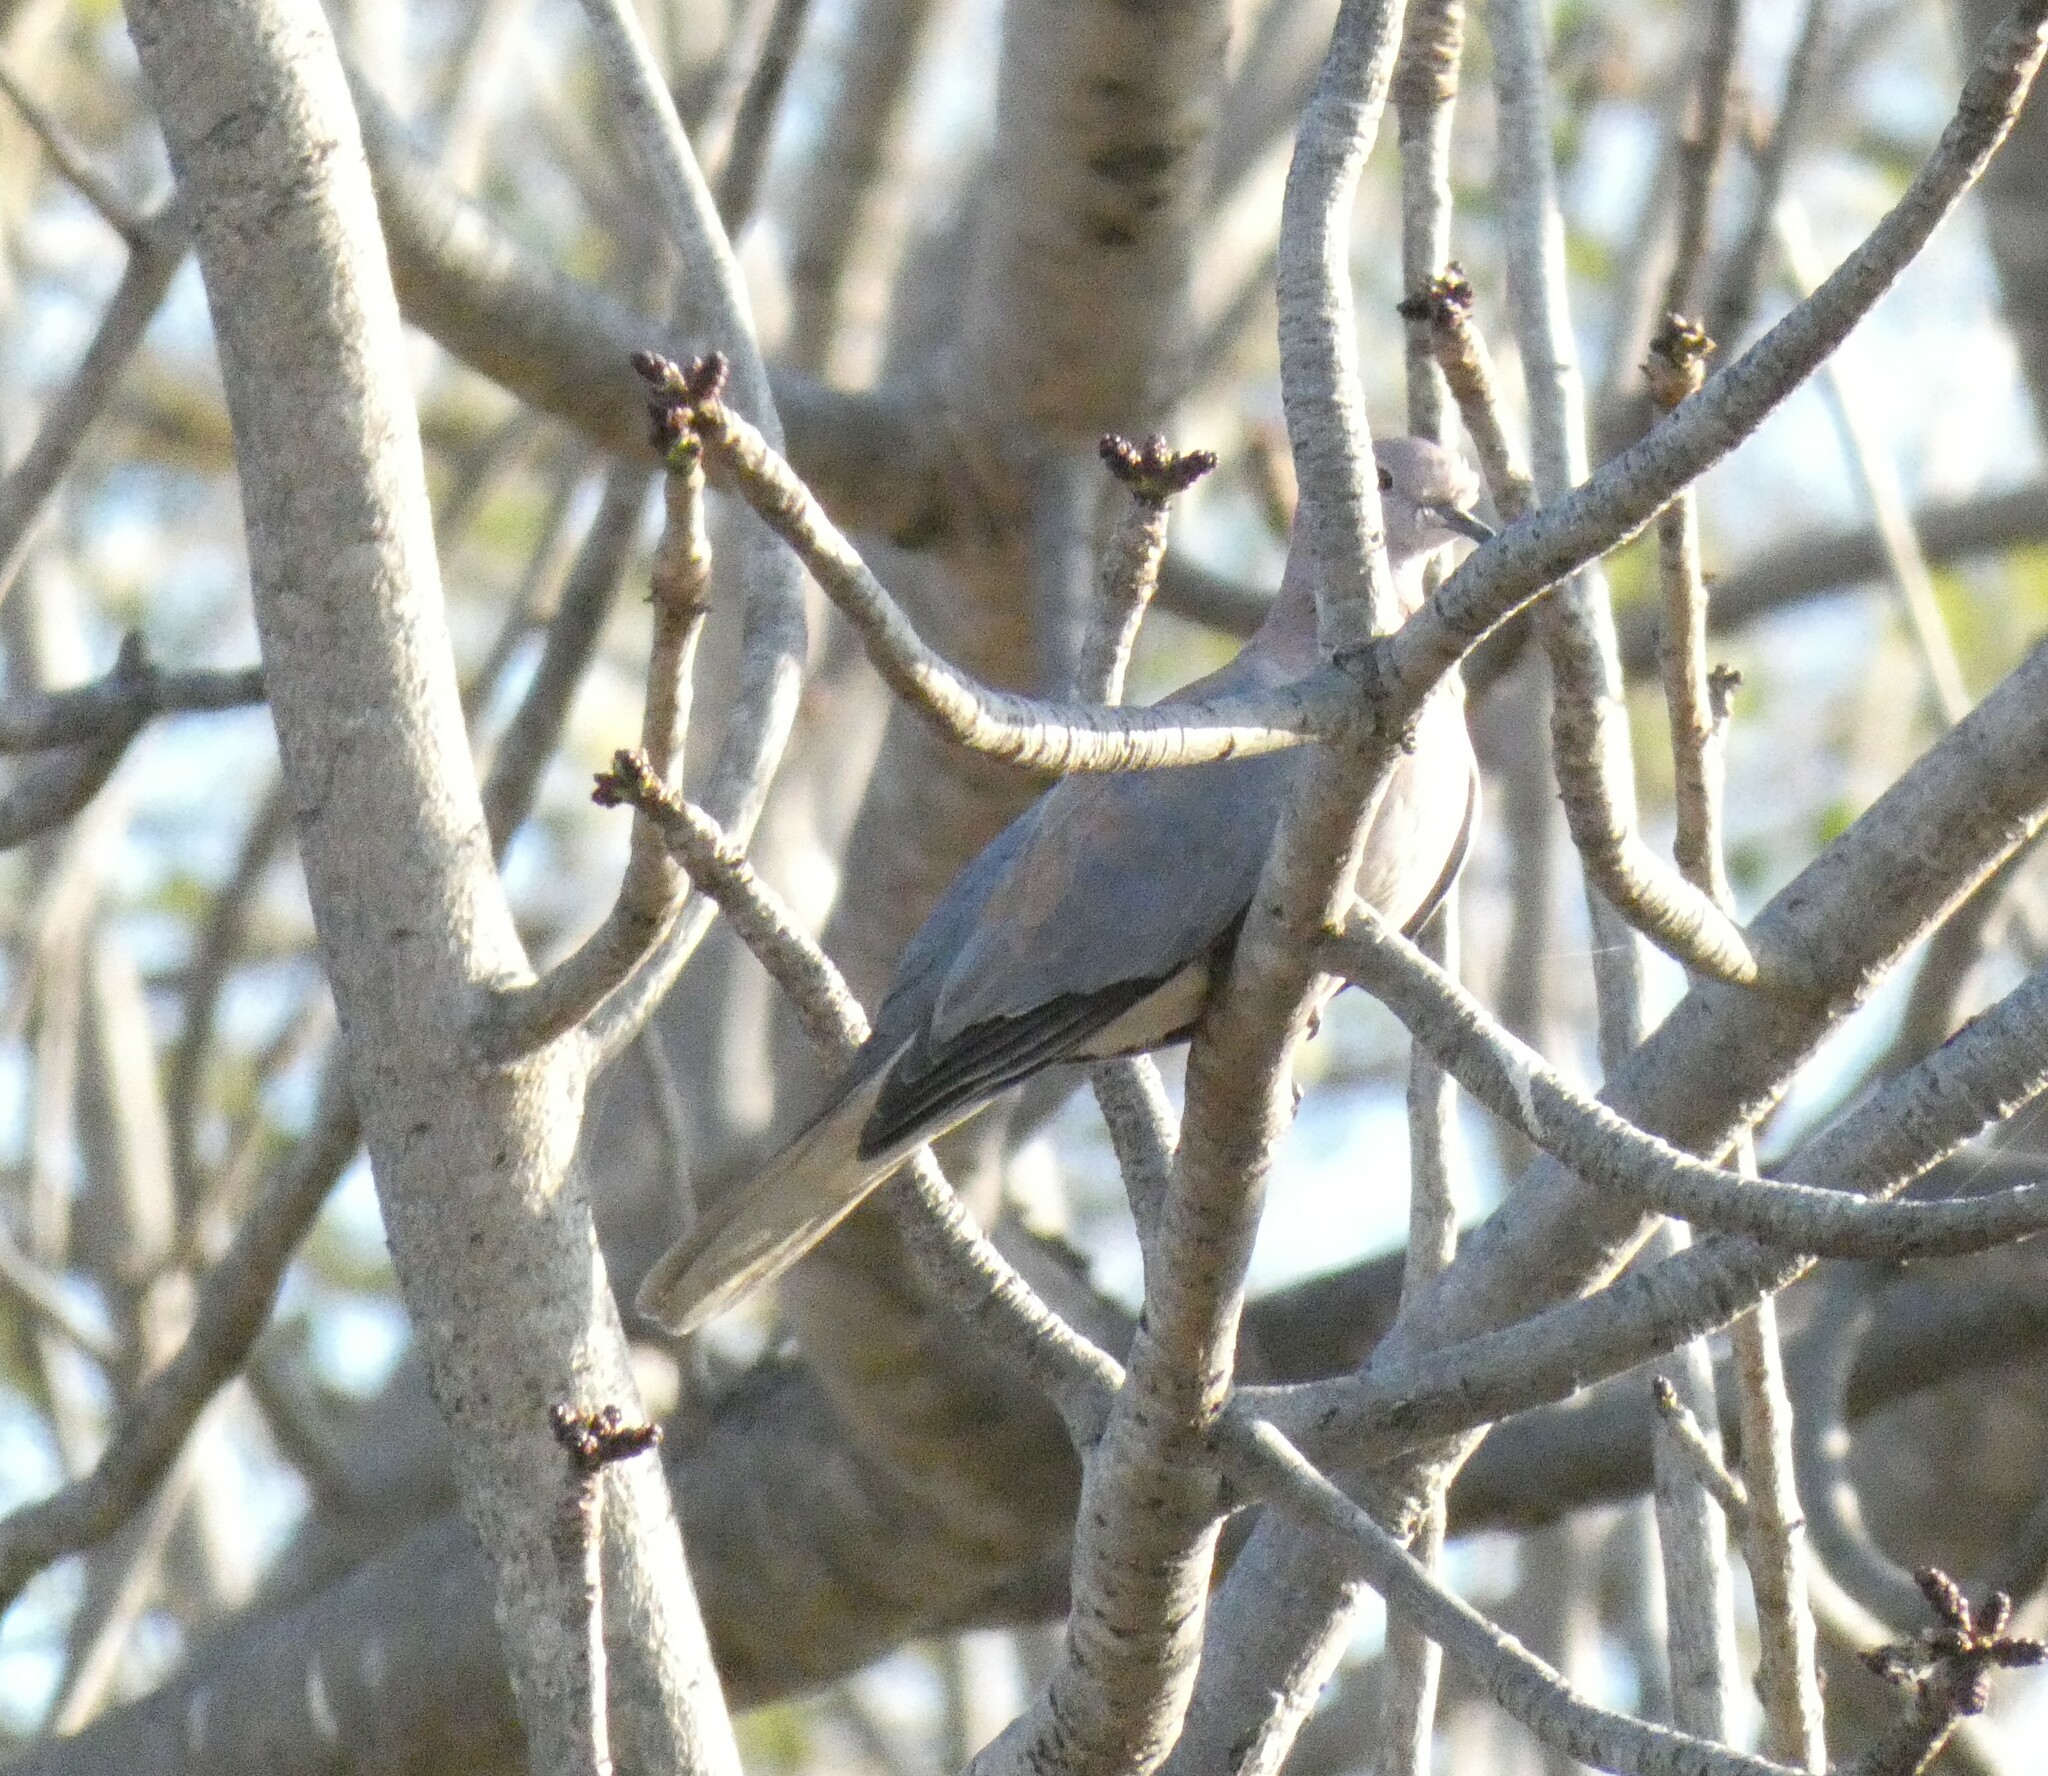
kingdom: Animalia
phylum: Chordata
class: Aves
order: Columbiformes
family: Columbidae
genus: Spilopelia
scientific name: Spilopelia senegalensis
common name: Laughing dove
